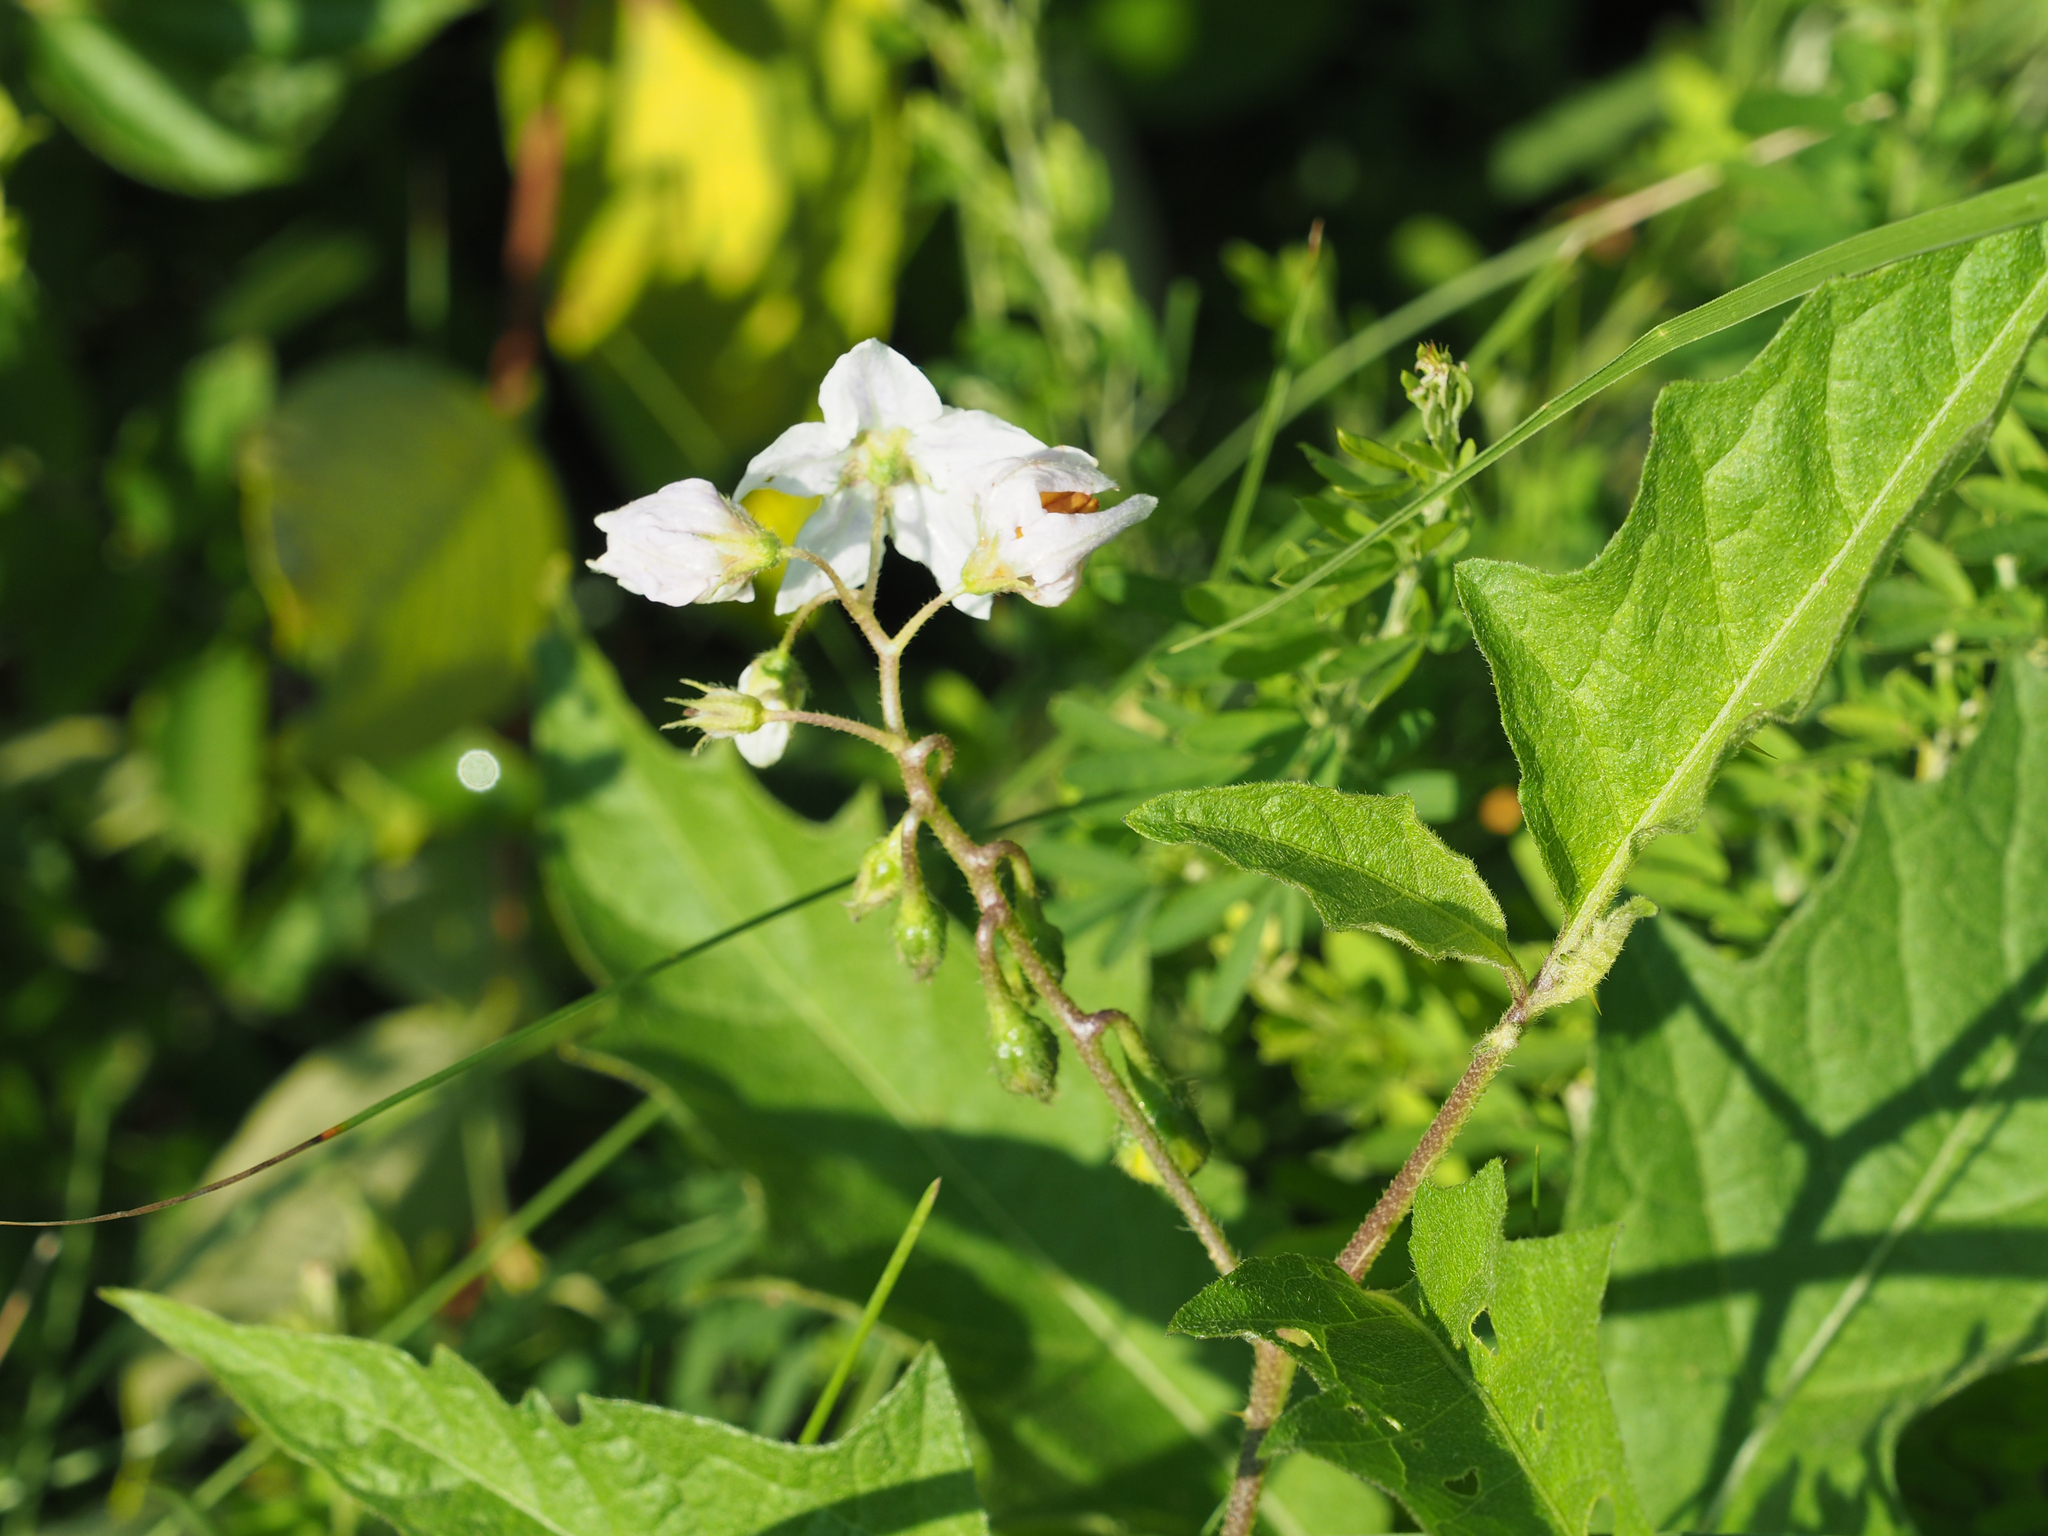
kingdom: Plantae
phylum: Tracheophyta
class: Magnoliopsida
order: Solanales
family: Solanaceae
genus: Solanum
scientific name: Solanum carolinense
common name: Horse-nettle
